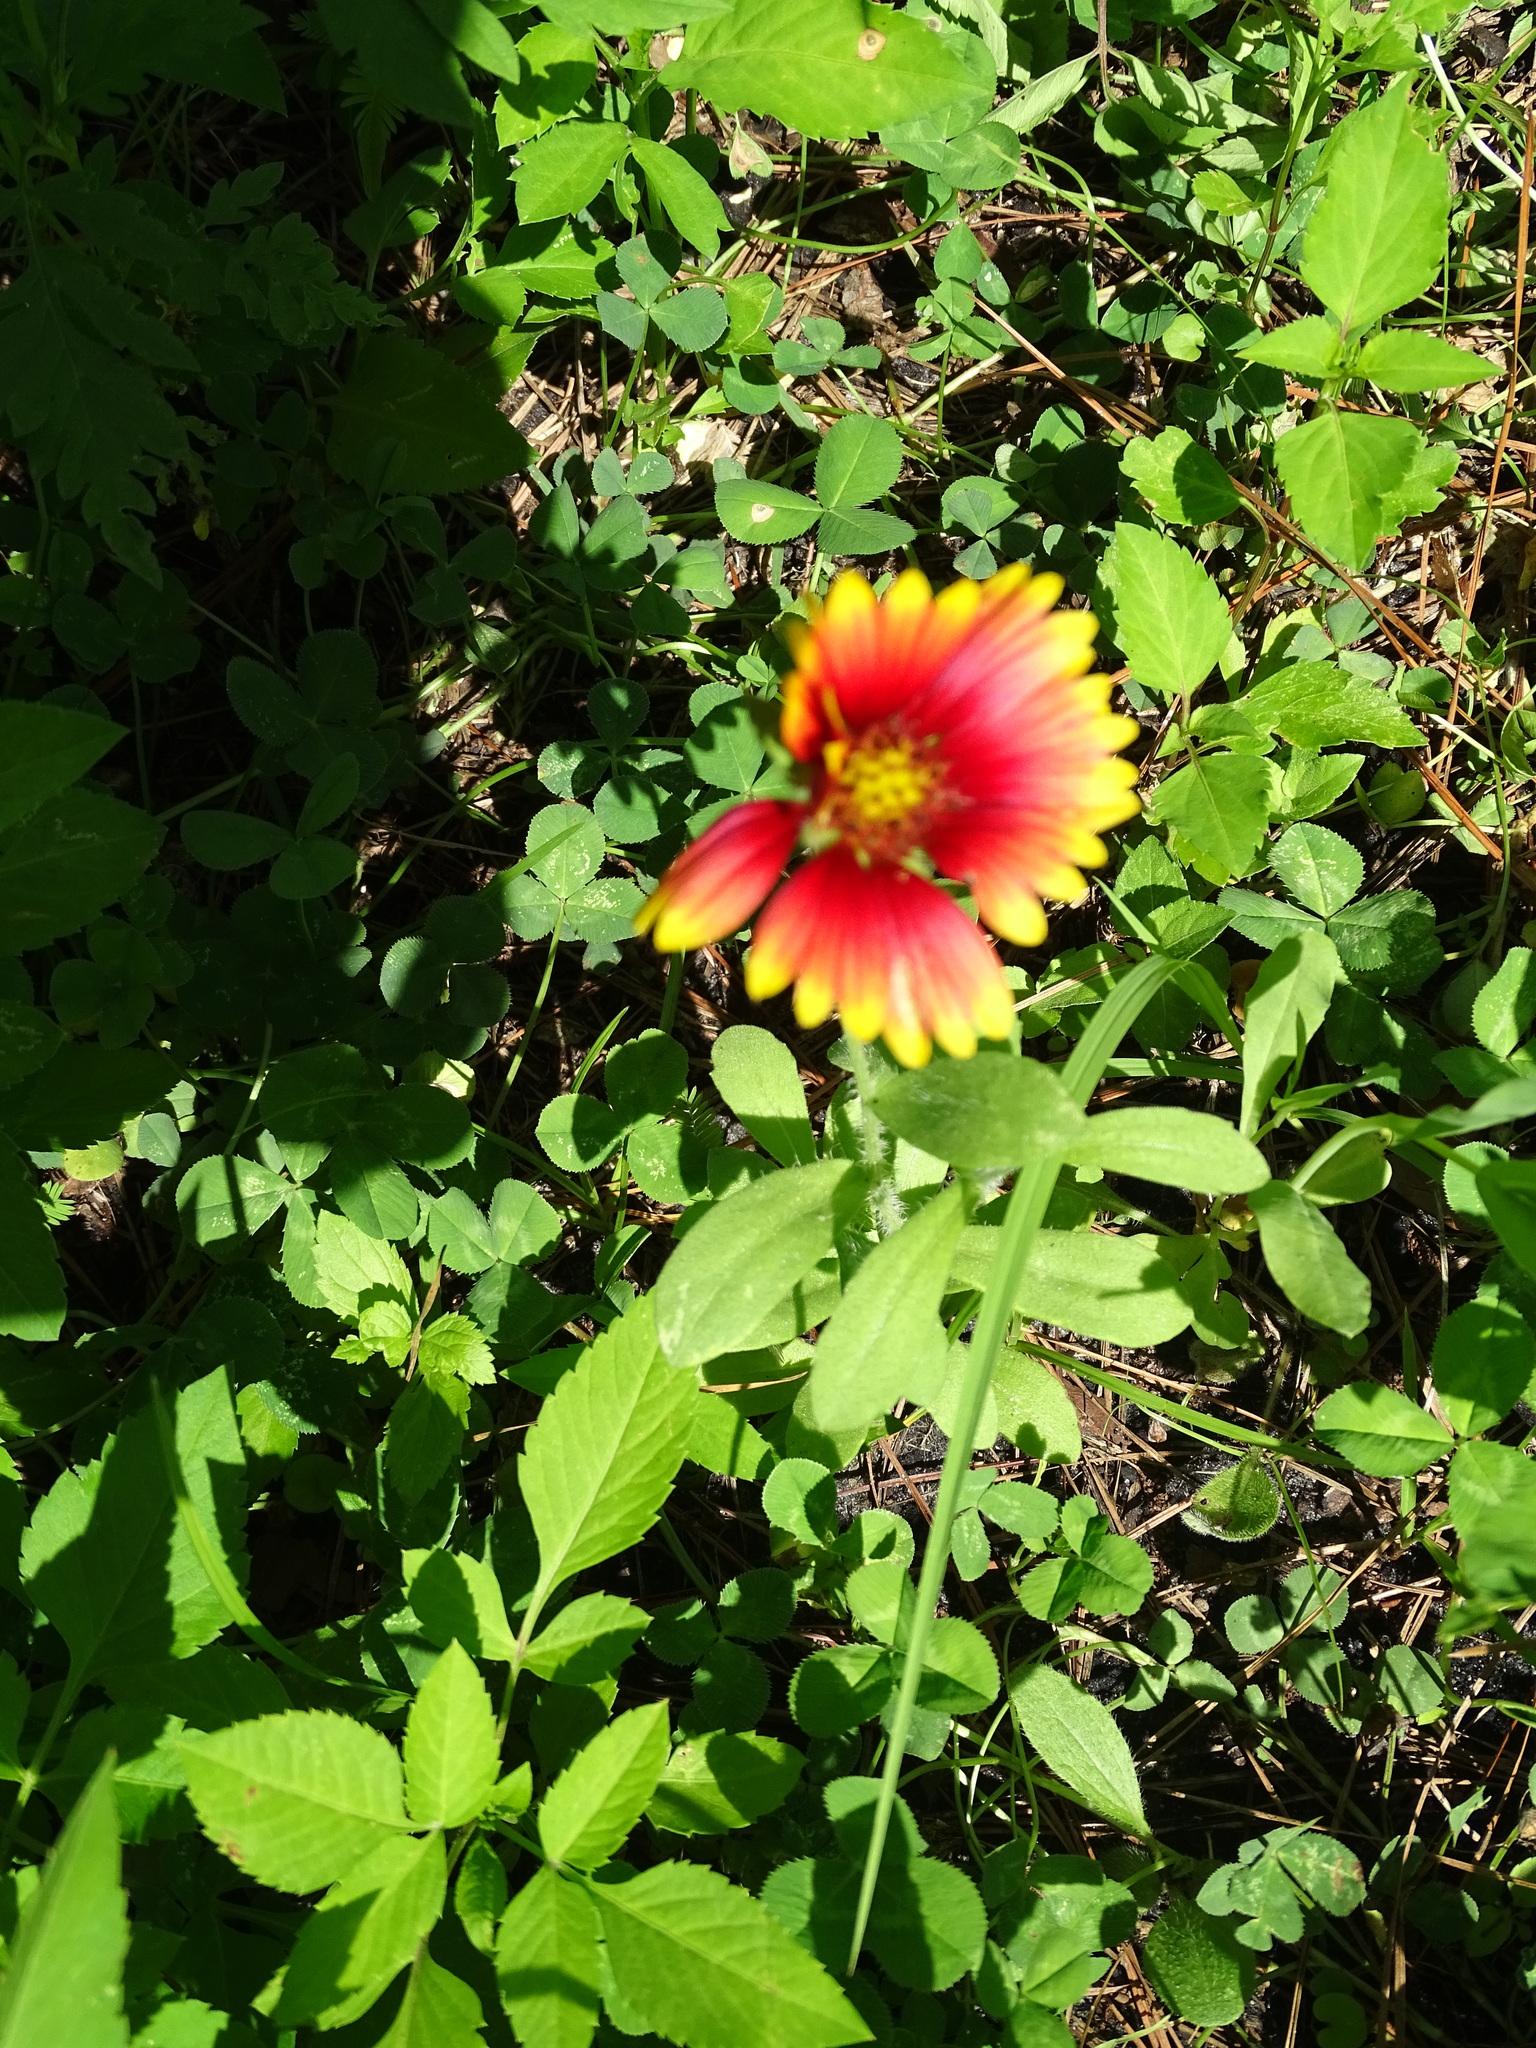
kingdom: Plantae
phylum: Tracheophyta
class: Magnoliopsida
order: Asterales
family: Asteraceae
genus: Gaillardia
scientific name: Gaillardia pulchella
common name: Firewheel
